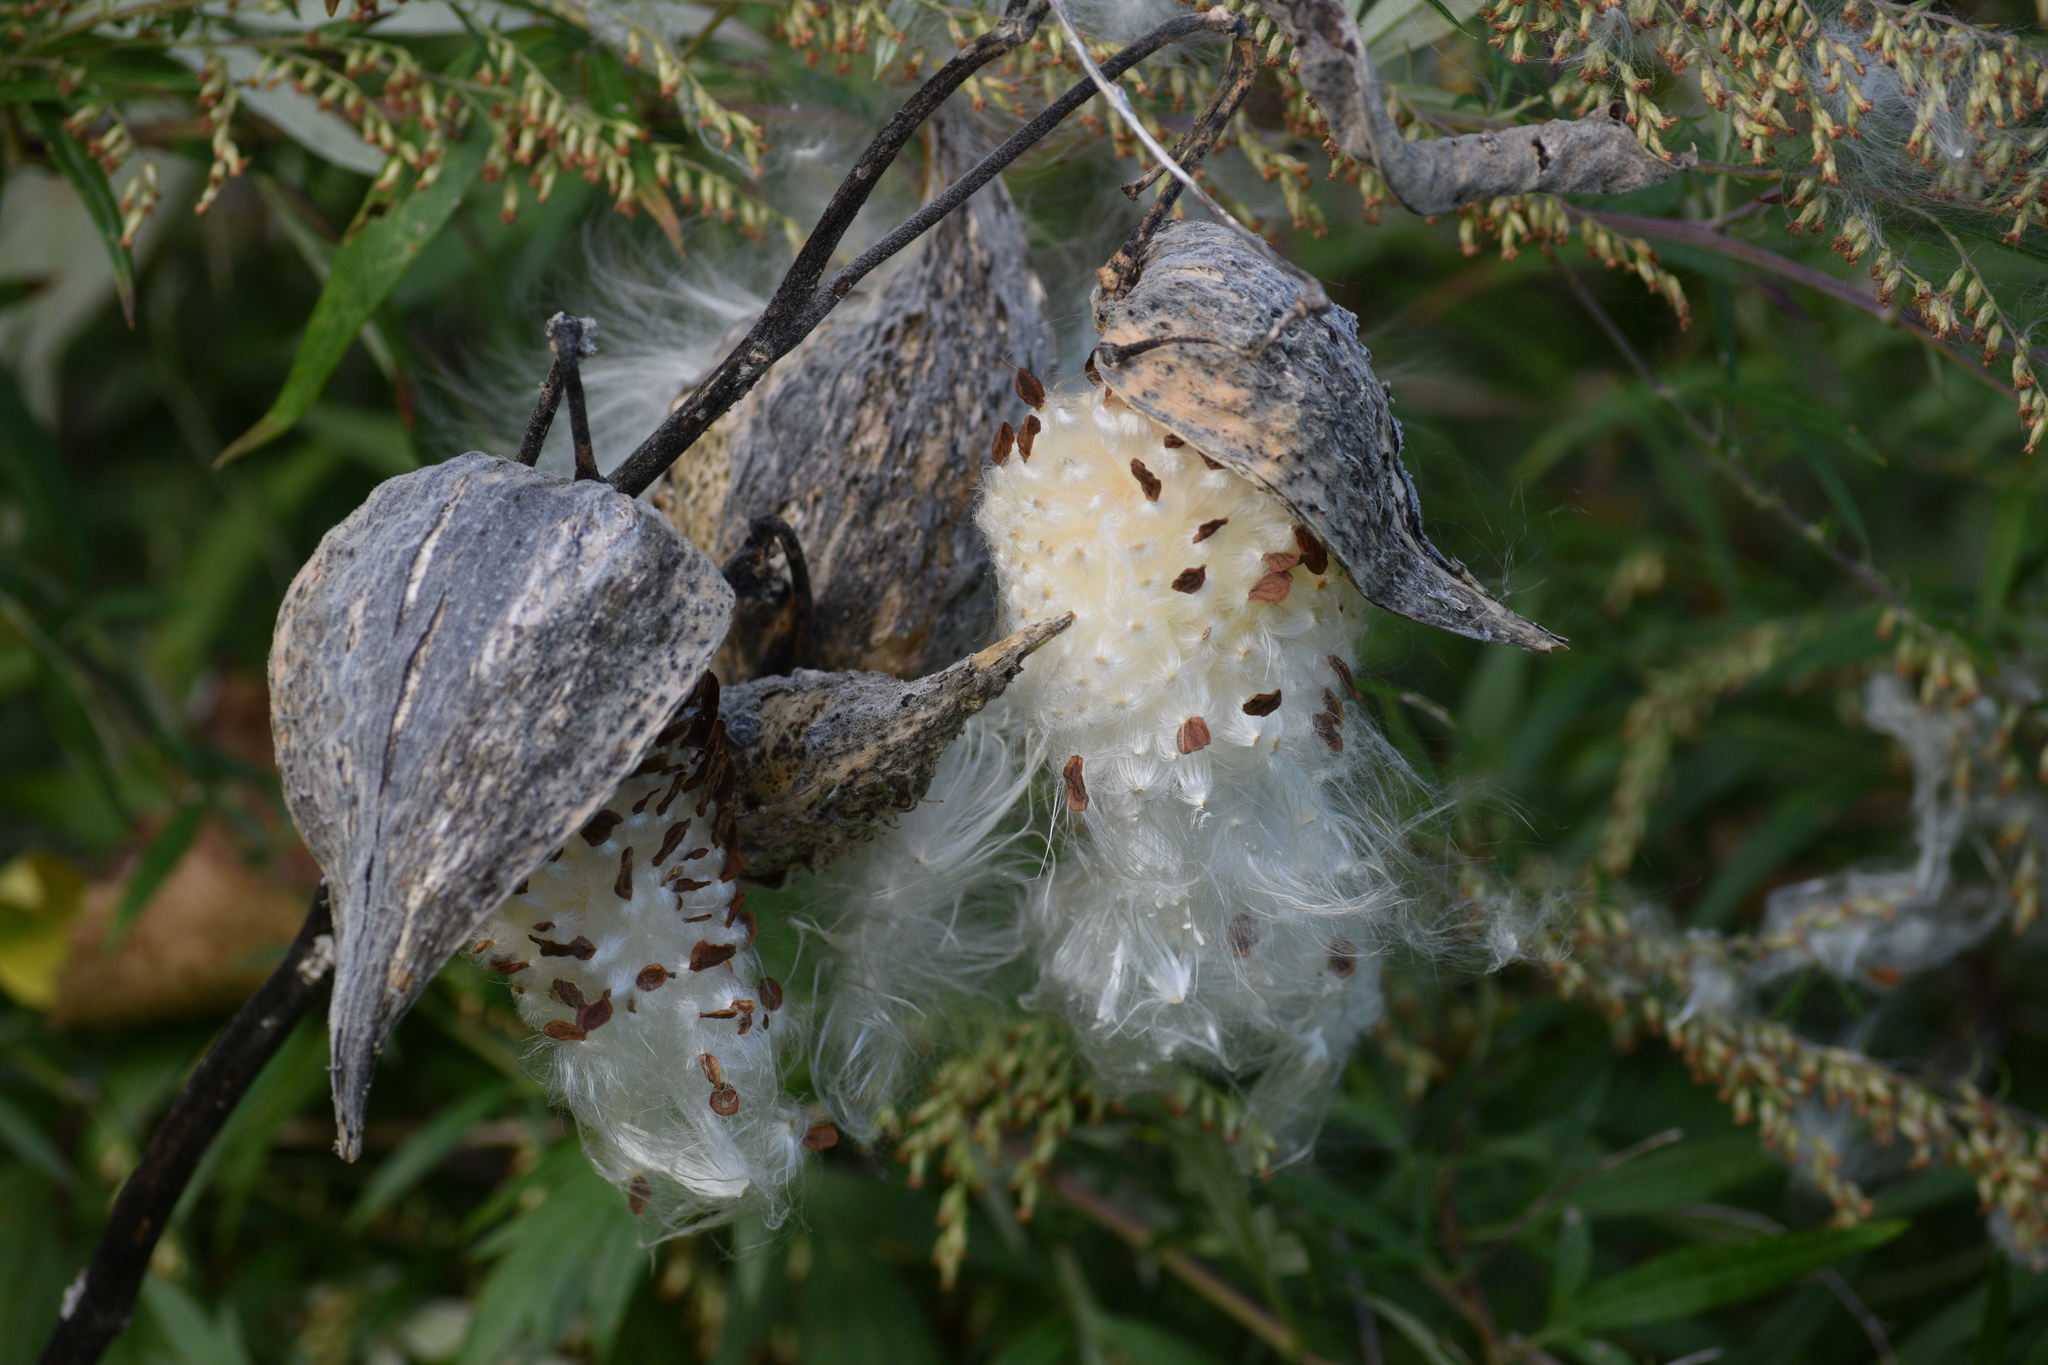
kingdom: Plantae
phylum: Tracheophyta
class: Magnoliopsida
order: Gentianales
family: Apocynaceae
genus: Asclepias
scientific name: Asclepias syriaca
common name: Common milkweed
